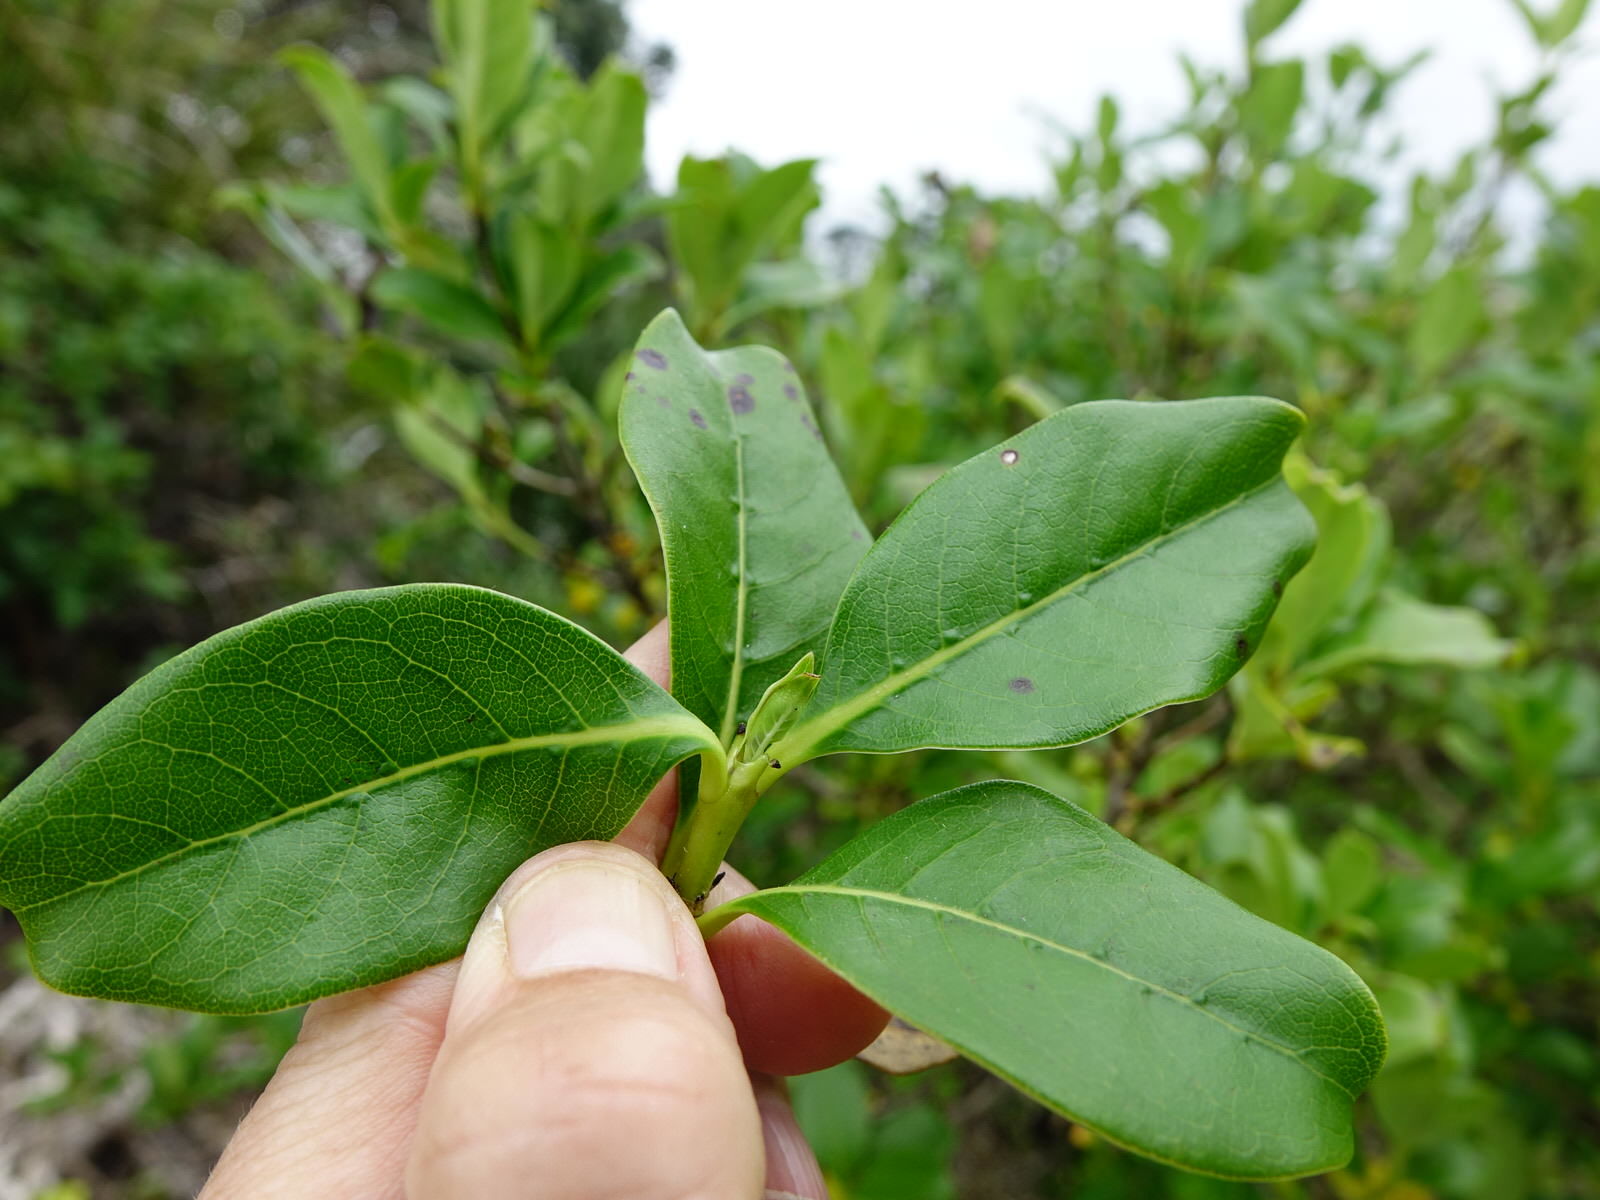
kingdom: Plantae
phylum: Tracheophyta
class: Magnoliopsida
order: Gentianales
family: Rubiaceae
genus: Coprosma
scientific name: Coprosma macrocarpa
